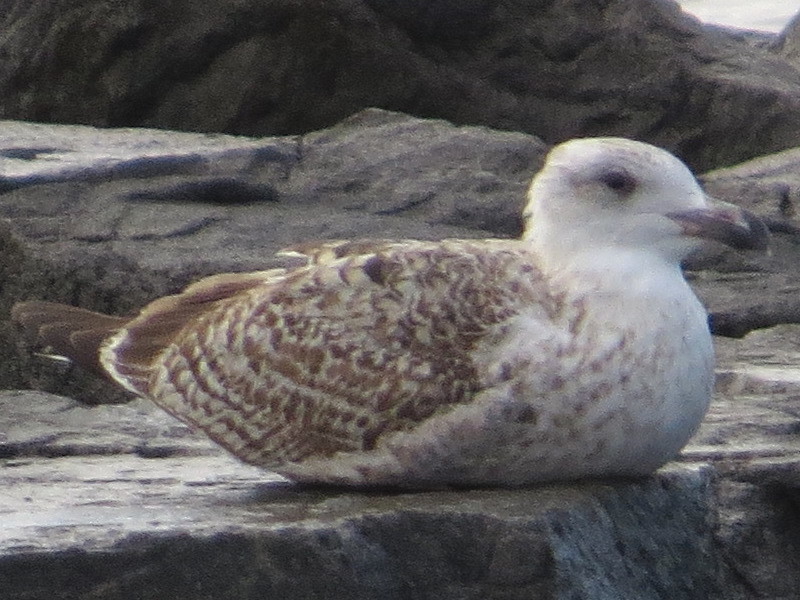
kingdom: Animalia
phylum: Chordata
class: Aves
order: Charadriiformes
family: Laridae
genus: Larus
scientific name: Larus marinus
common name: Great black-backed gull
